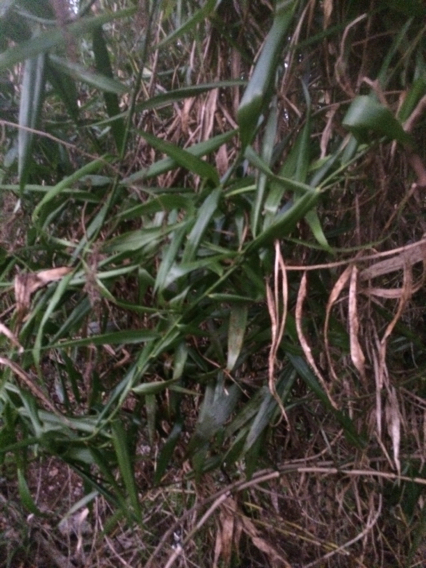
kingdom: Plantae
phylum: Tracheophyta
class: Liliopsida
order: Poales
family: Flagellariaceae
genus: Flagellaria
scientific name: Flagellaria indica
